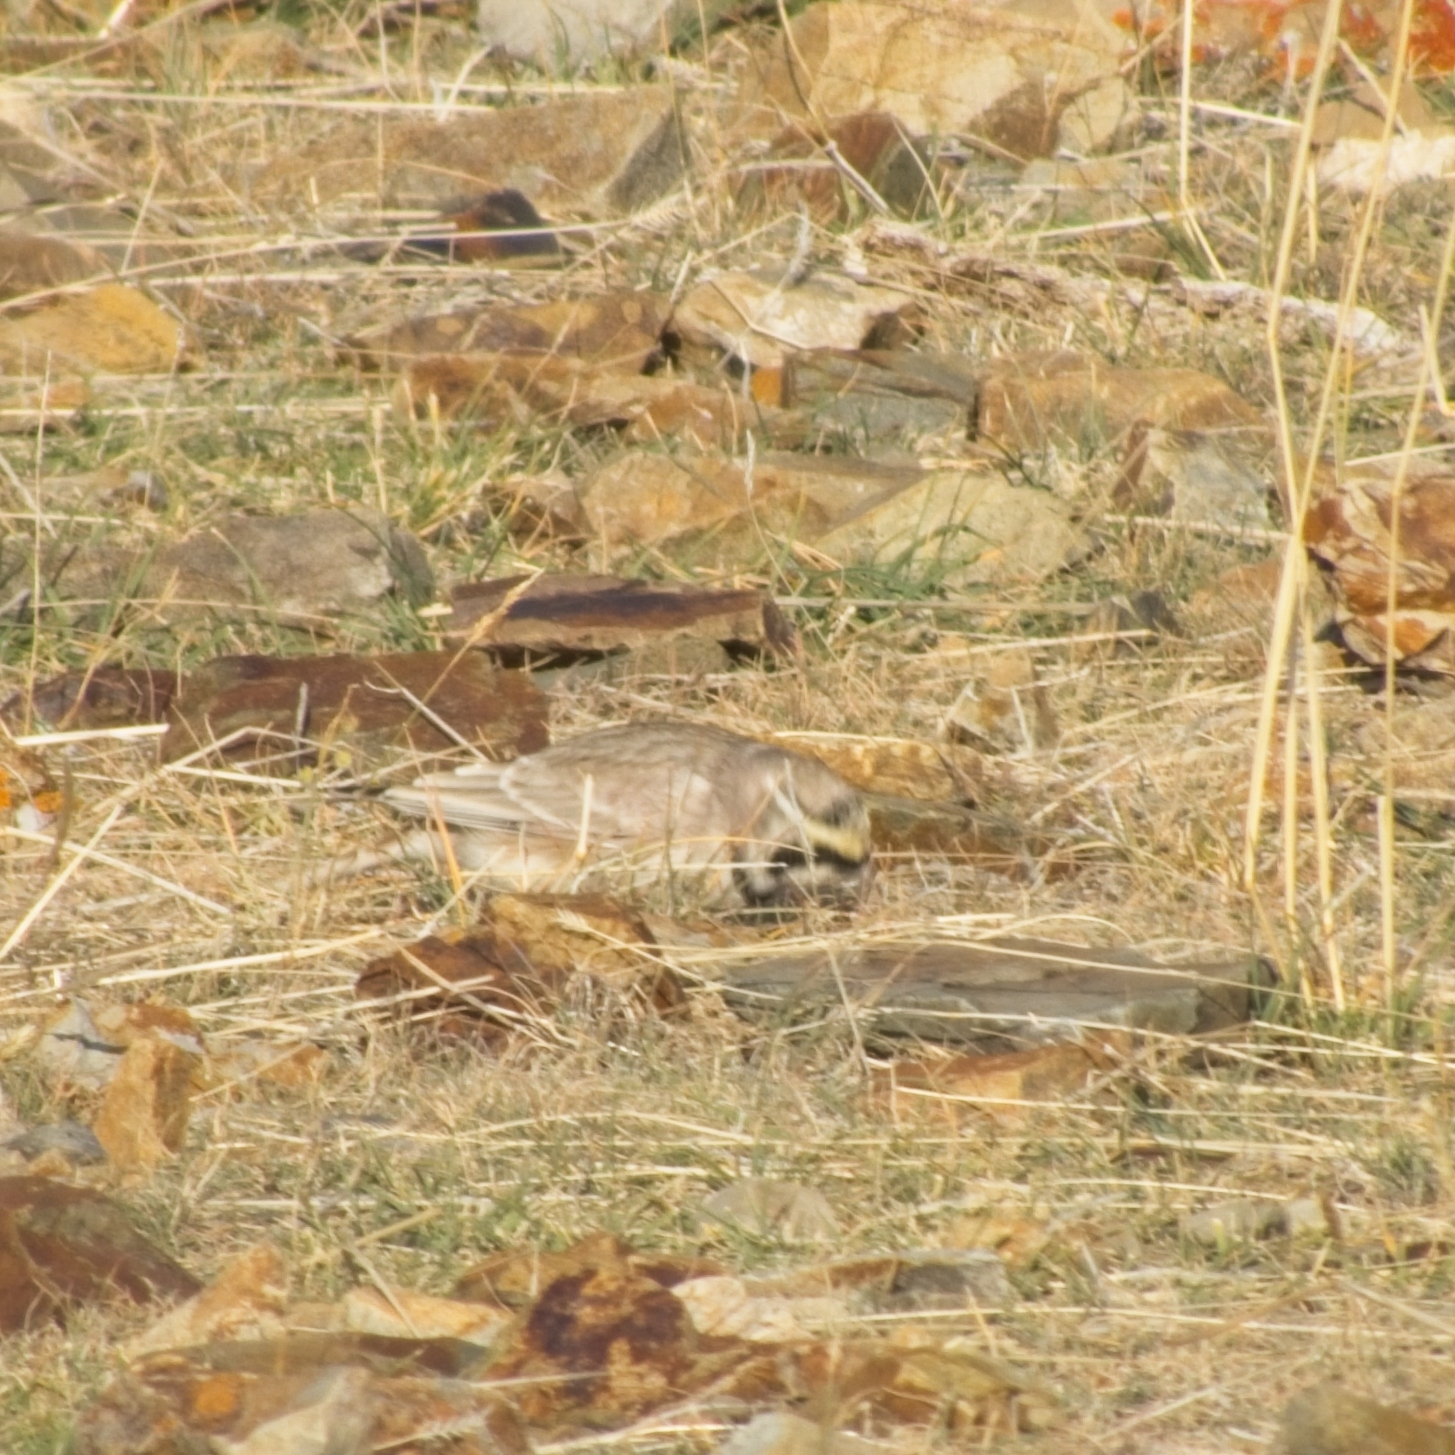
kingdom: Animalia
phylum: Chordata
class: Aves
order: Passeriformes
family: Alaudidae
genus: Eremophila
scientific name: Eremophila alpestris
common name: Horned lark
